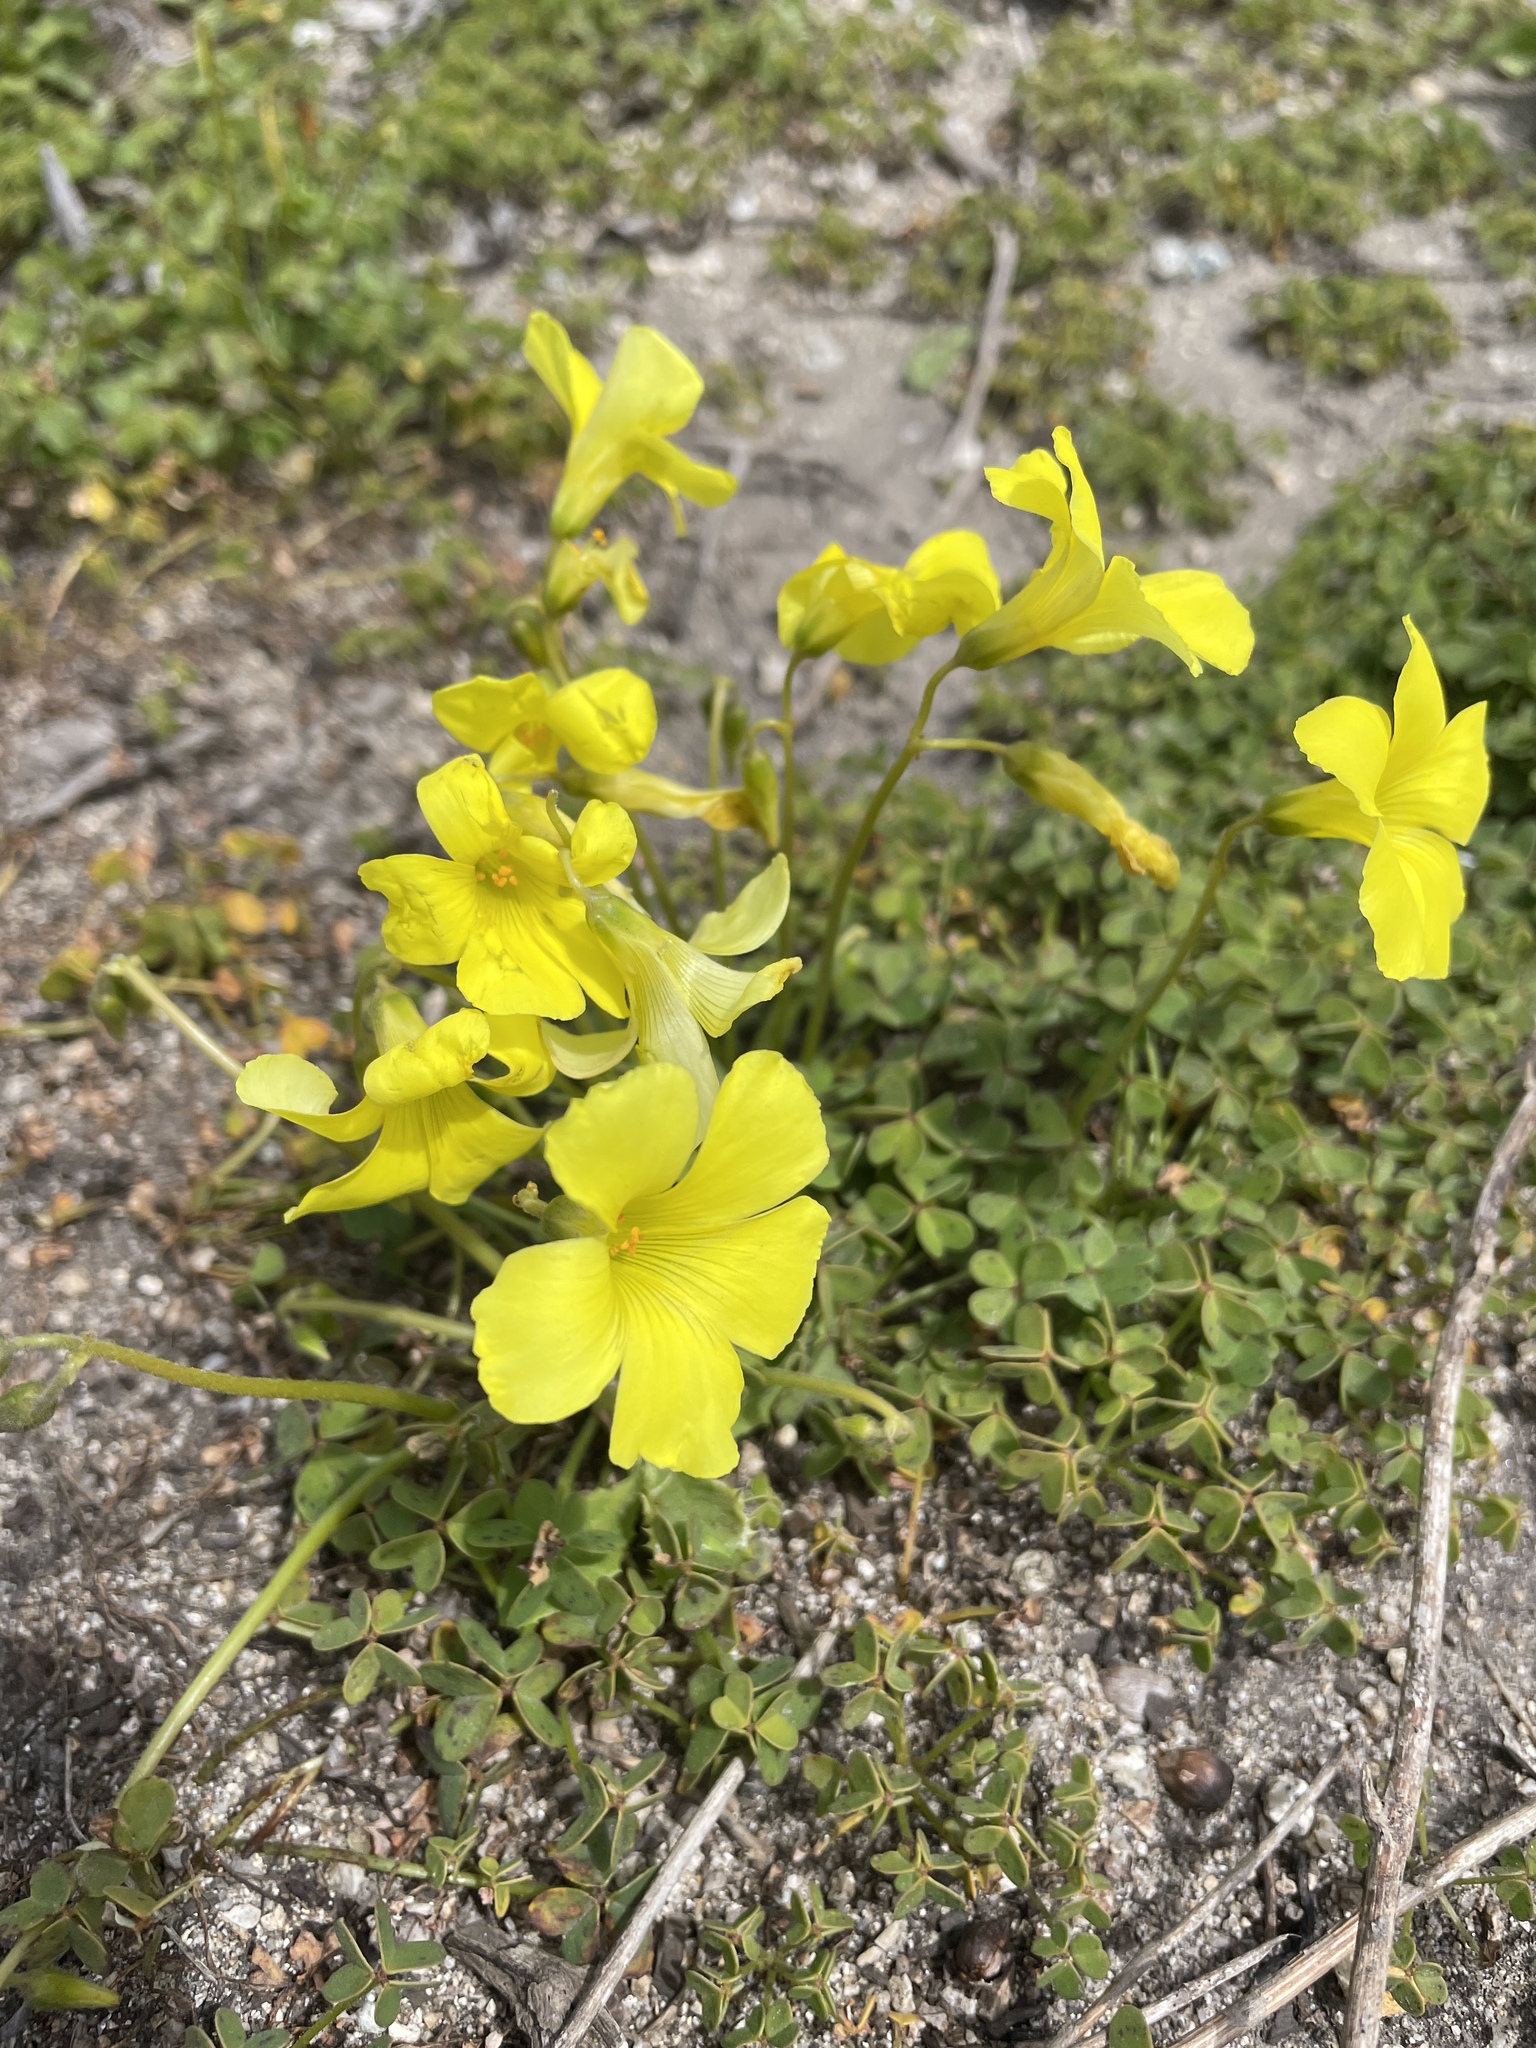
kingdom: Plantae
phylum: Tracheophyta
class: Magnoliopsida
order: Oxalidales
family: Oxalidaceae
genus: Oxalis
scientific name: Oxalis pes-caprae
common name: Bermuda-buttercup
